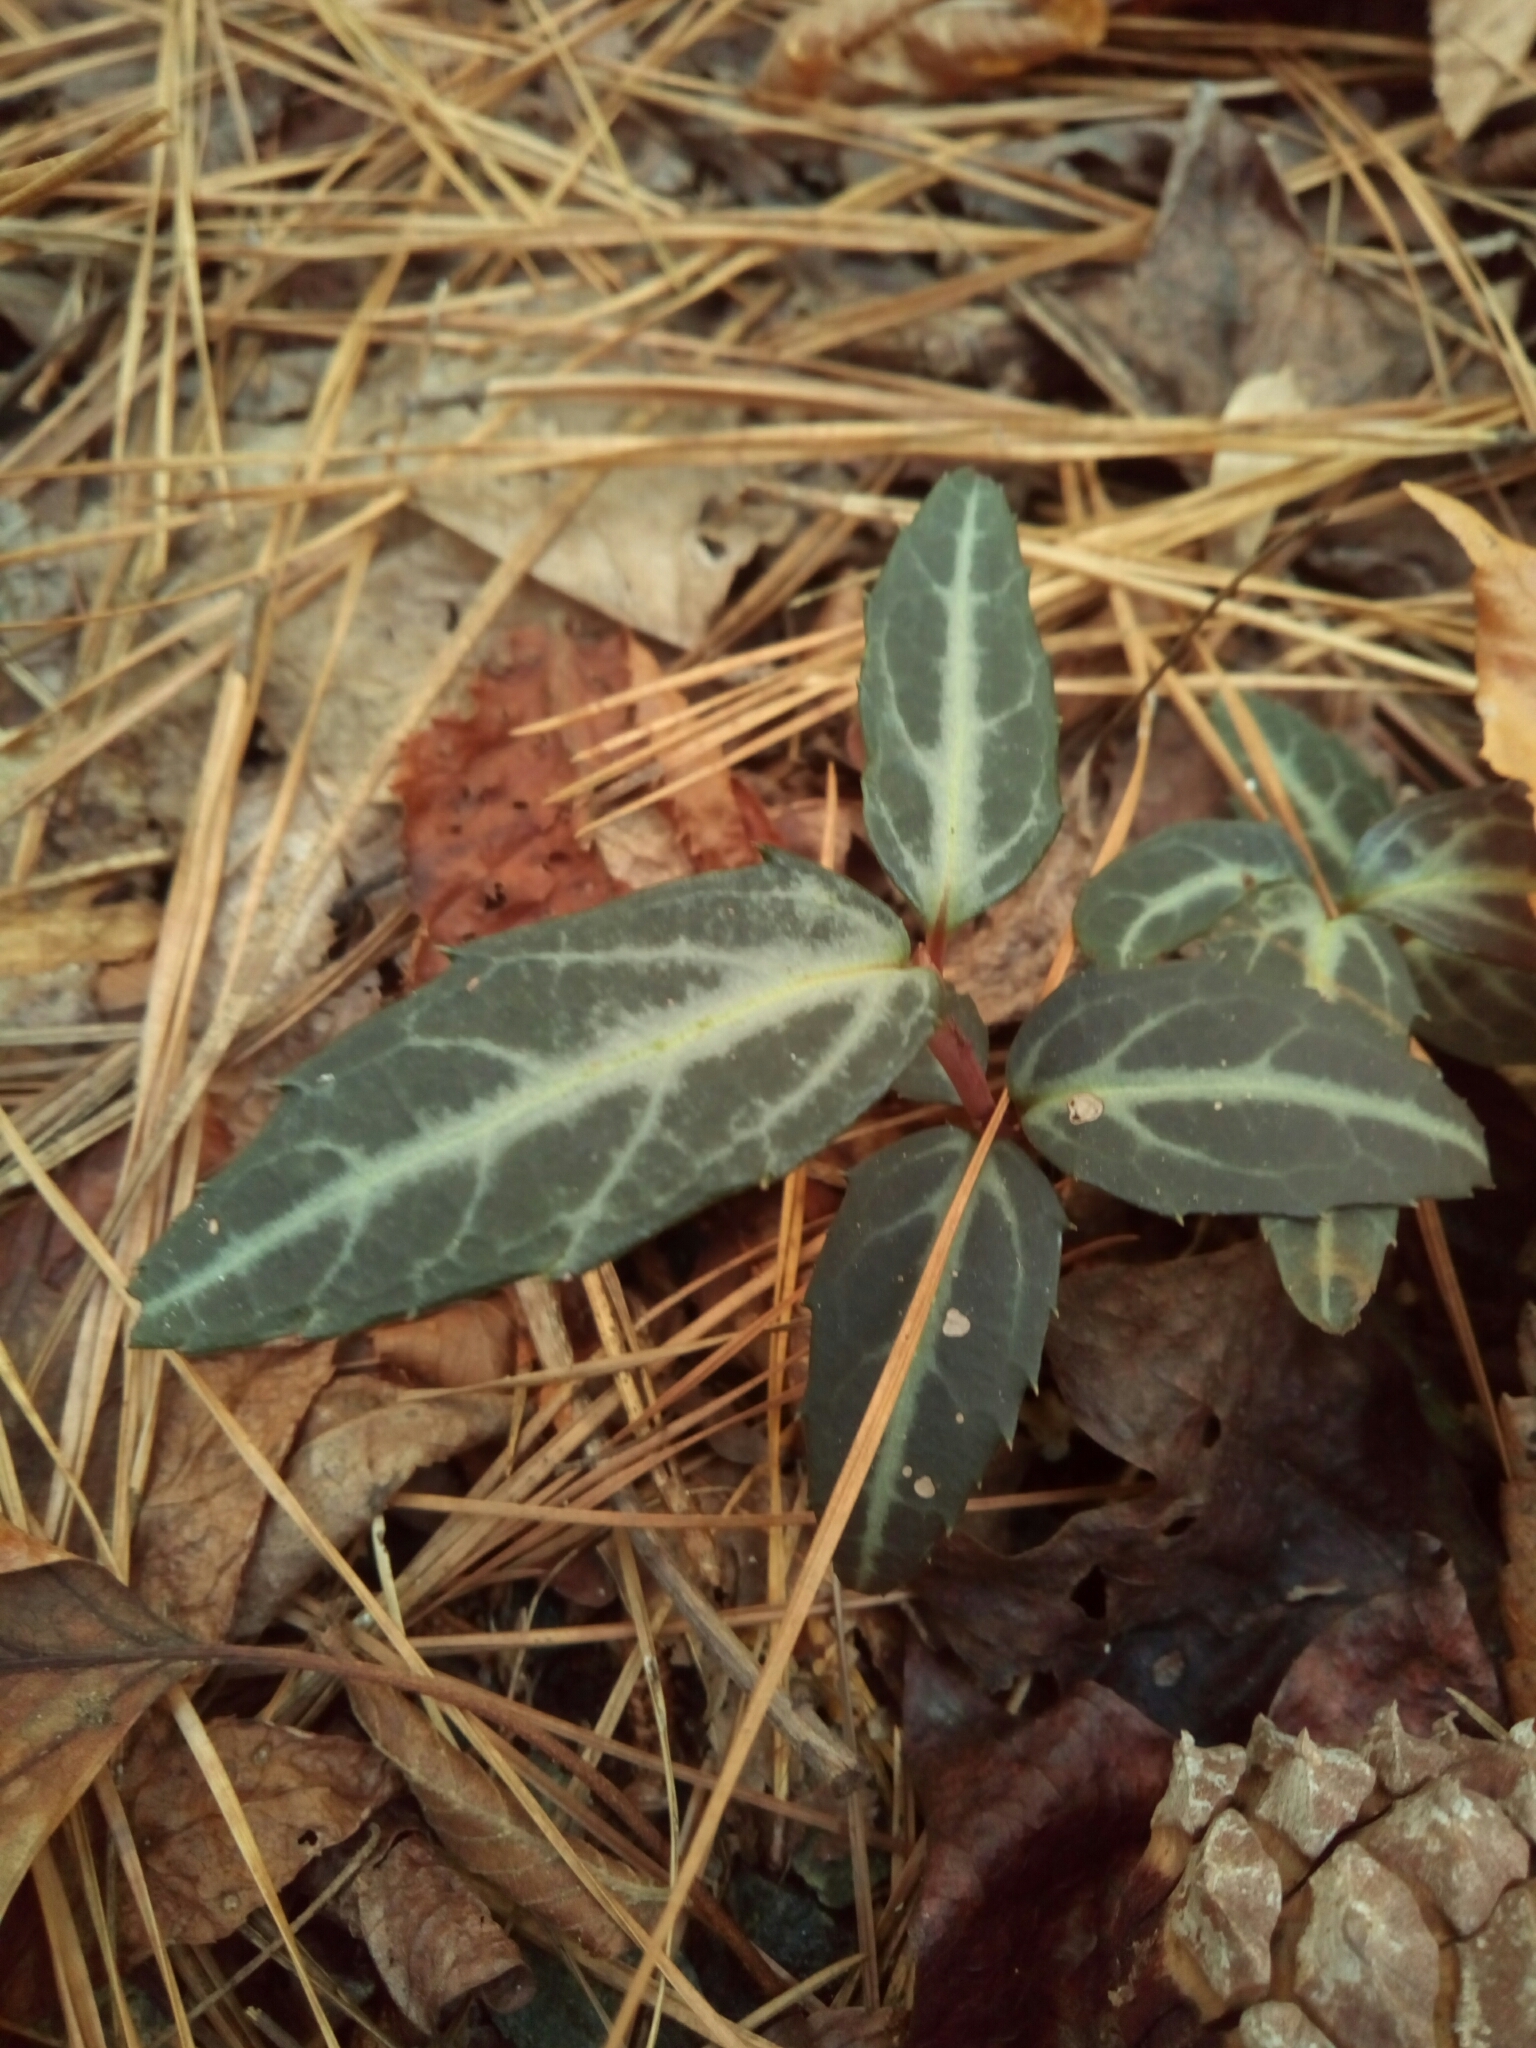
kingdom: Plantae
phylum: Tracheophyta
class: Magnoliopsida
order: Ericales
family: Ericaceae
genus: Chimaphila
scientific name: Chimaphila maculata
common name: Spotted pipsissewa
